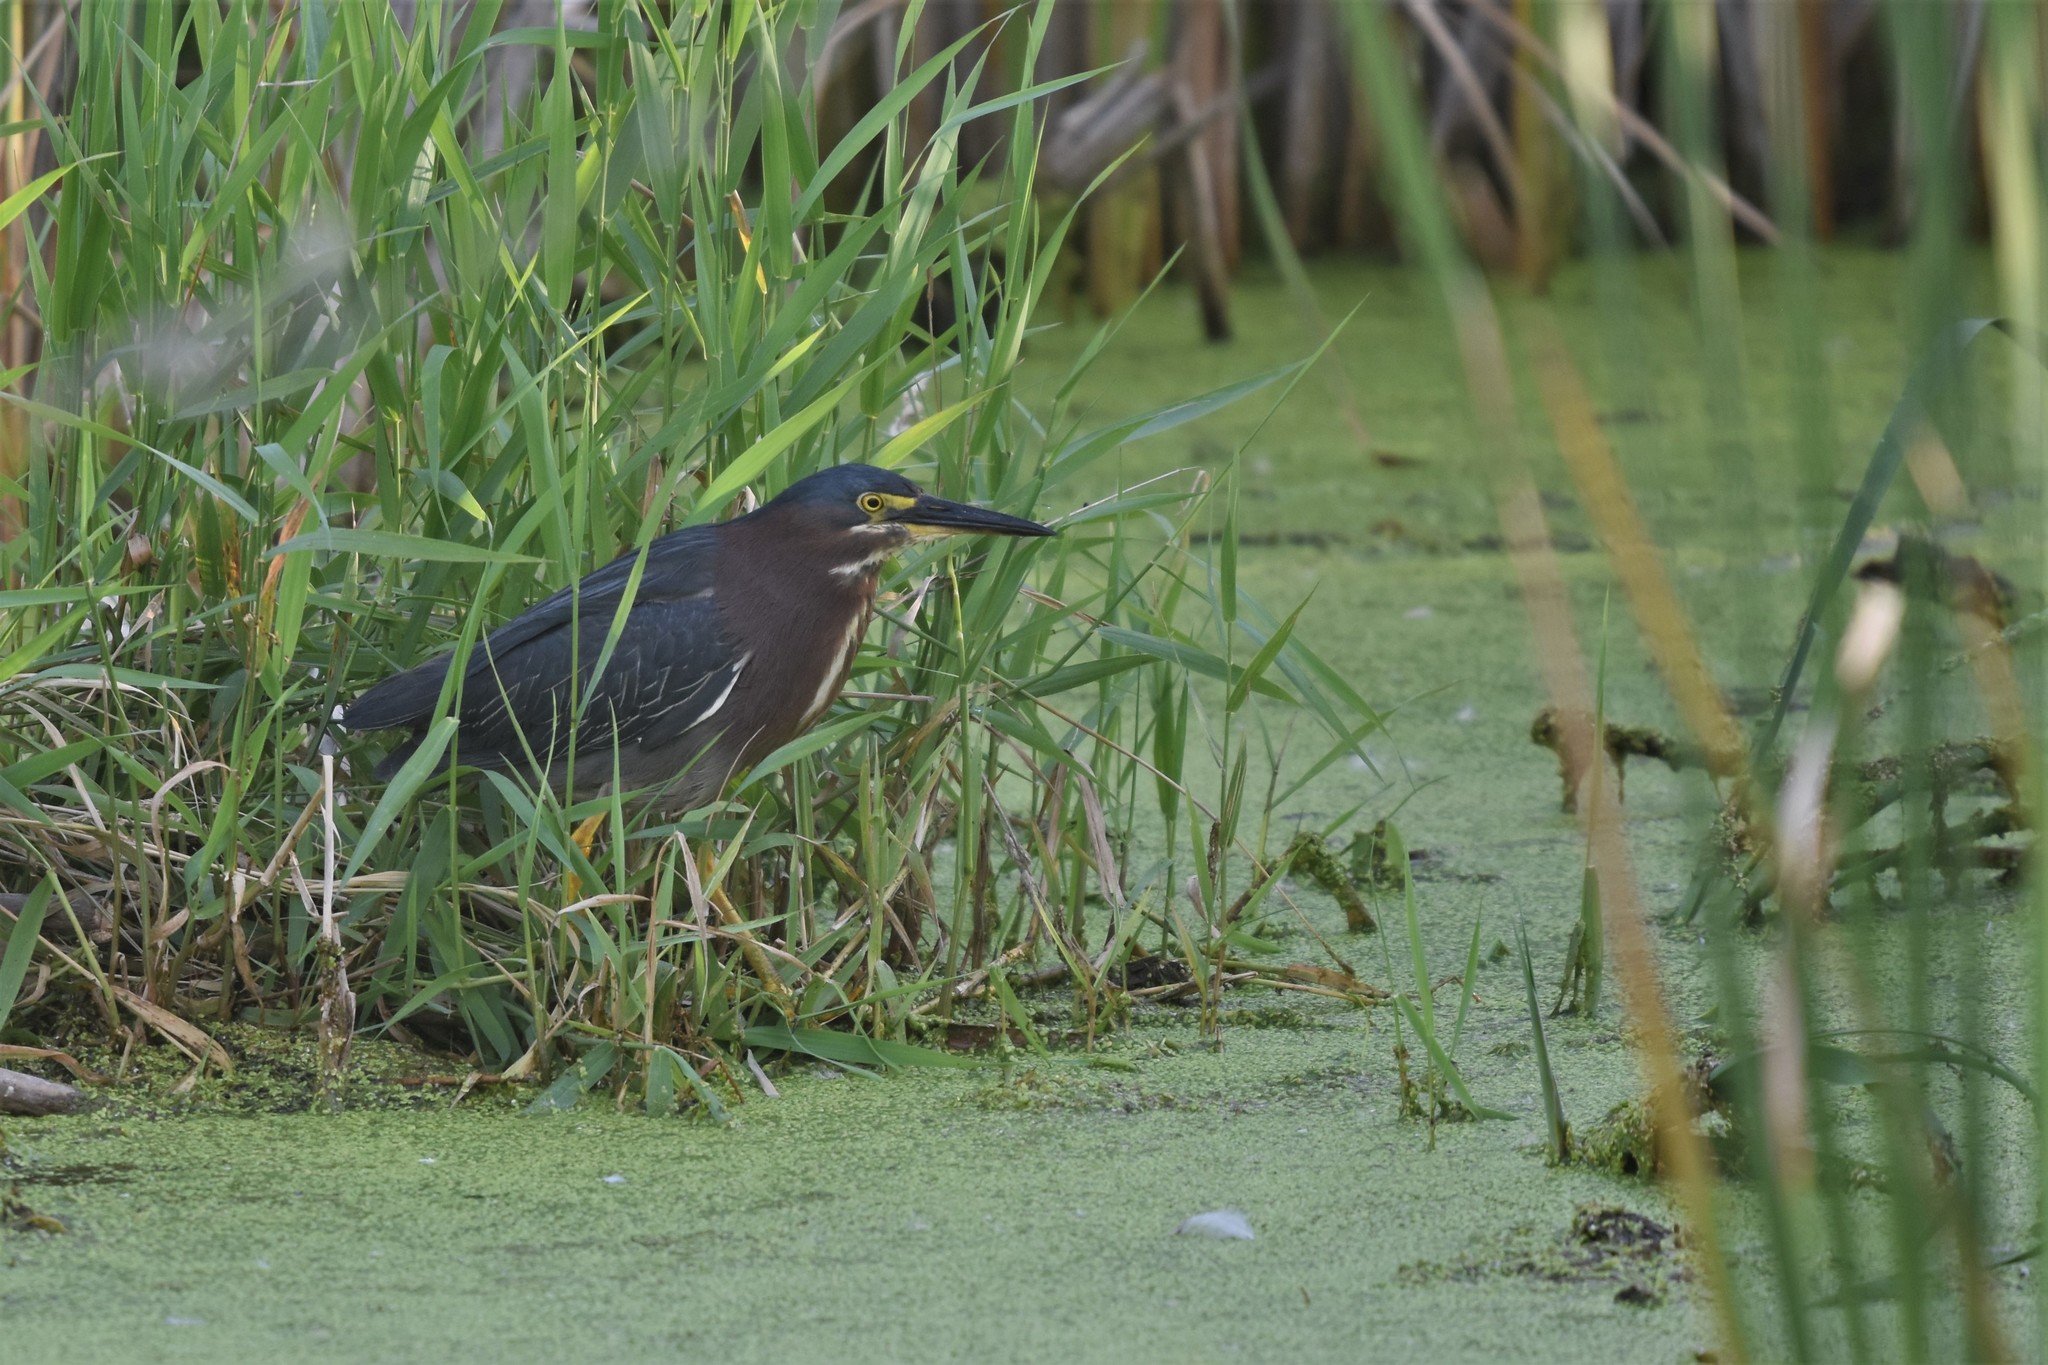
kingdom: Animalia
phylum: Chordata
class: Aves
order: Pelecaniformes
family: Ardeidae
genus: Butorides
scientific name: Butorides virescens
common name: Green heron
